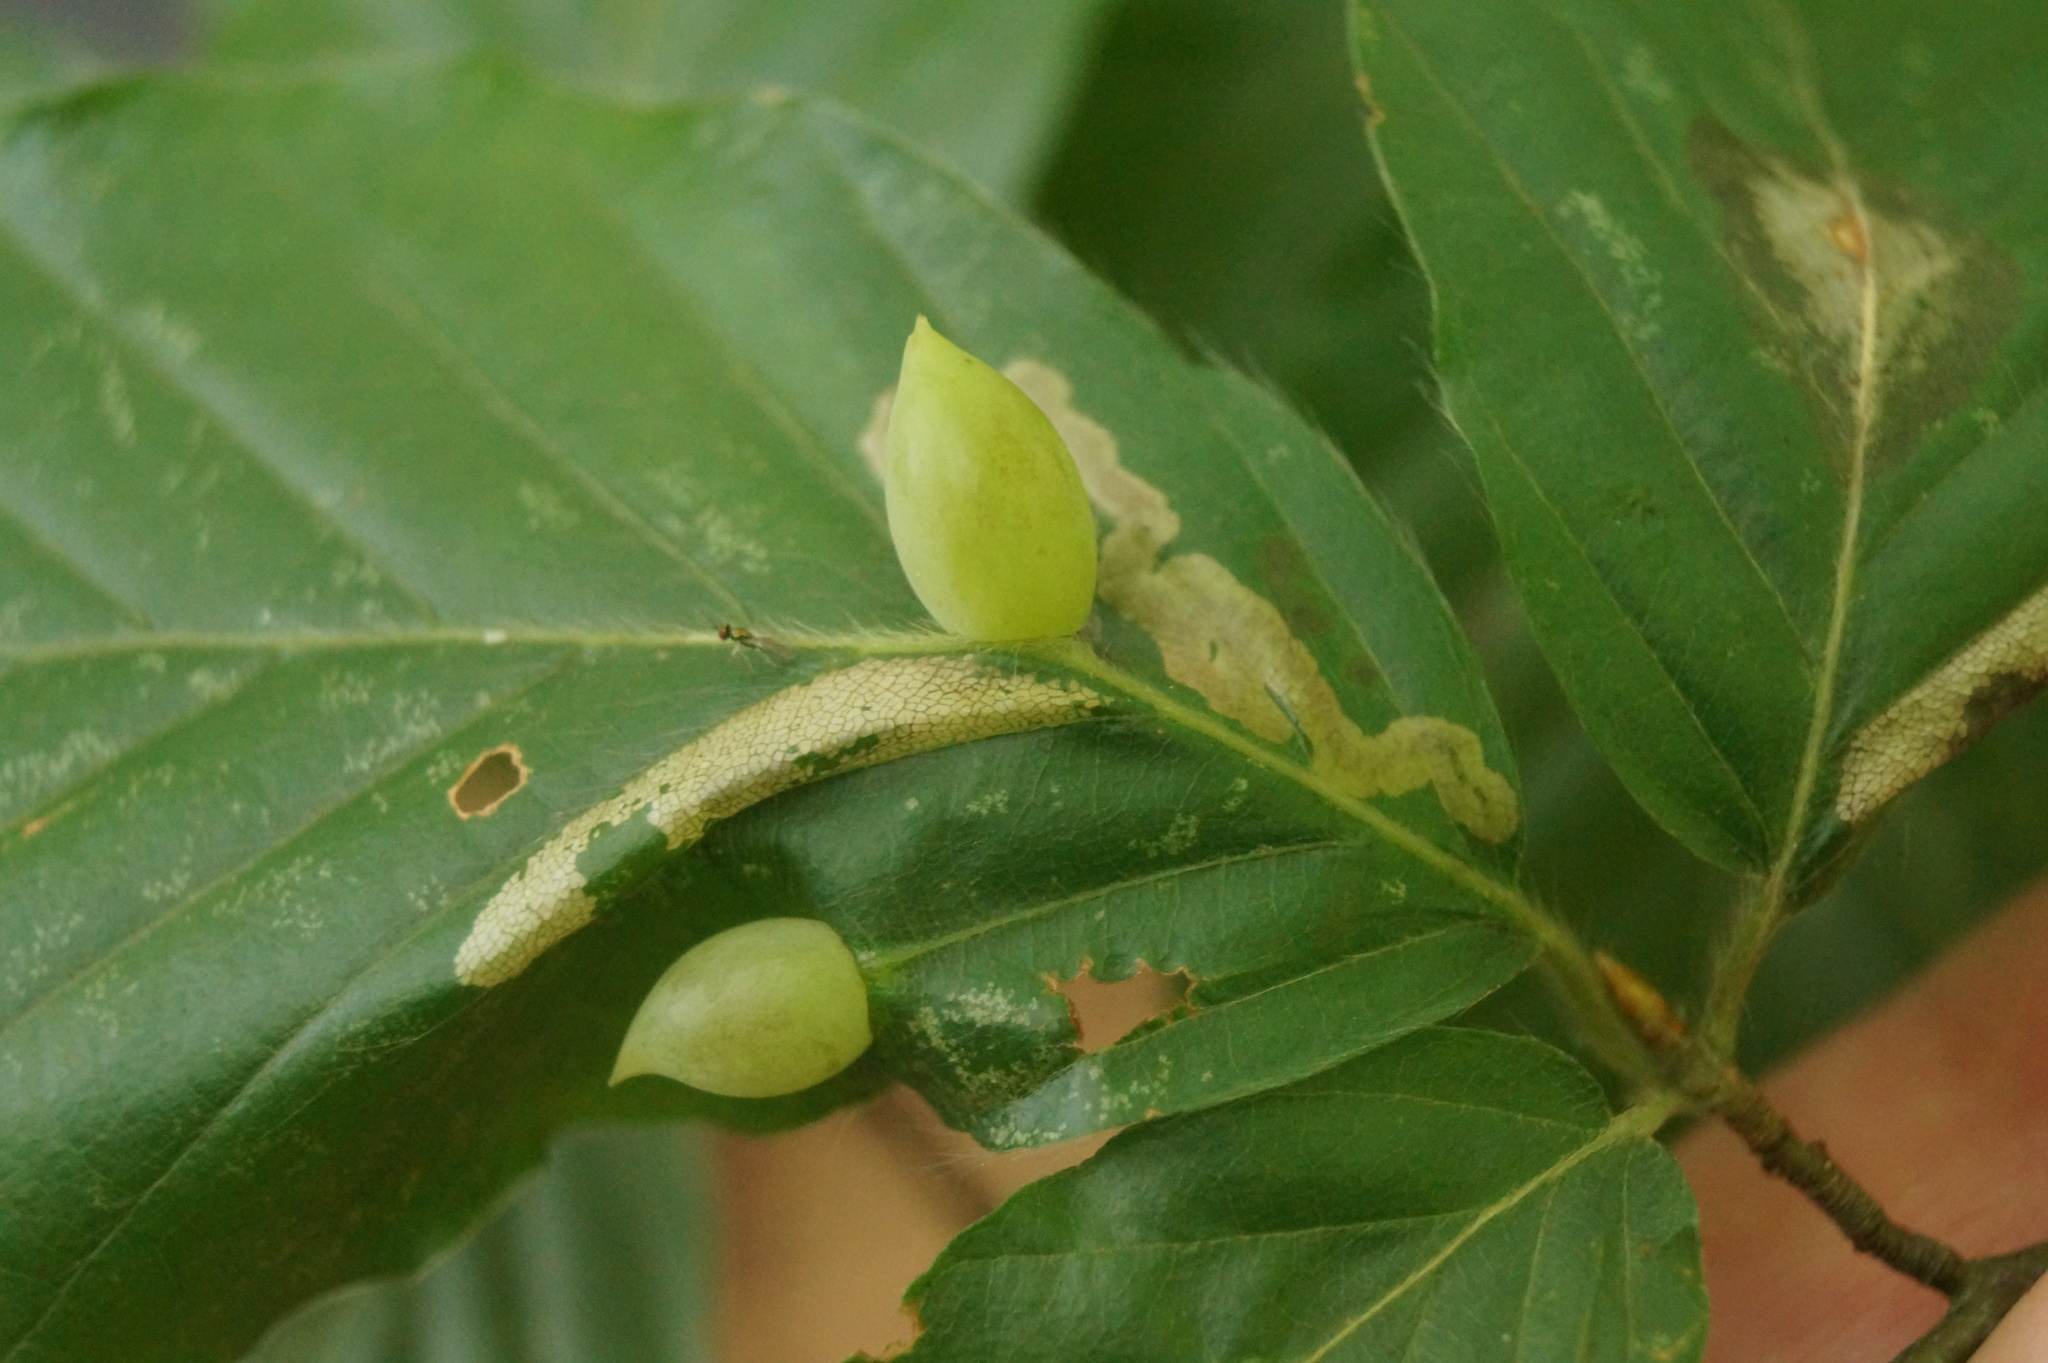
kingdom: Animalia
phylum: Arthropoda
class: Insecta
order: Diptera
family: Cecidomyiidae
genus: Mikiola
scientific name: Mikiola fagi
